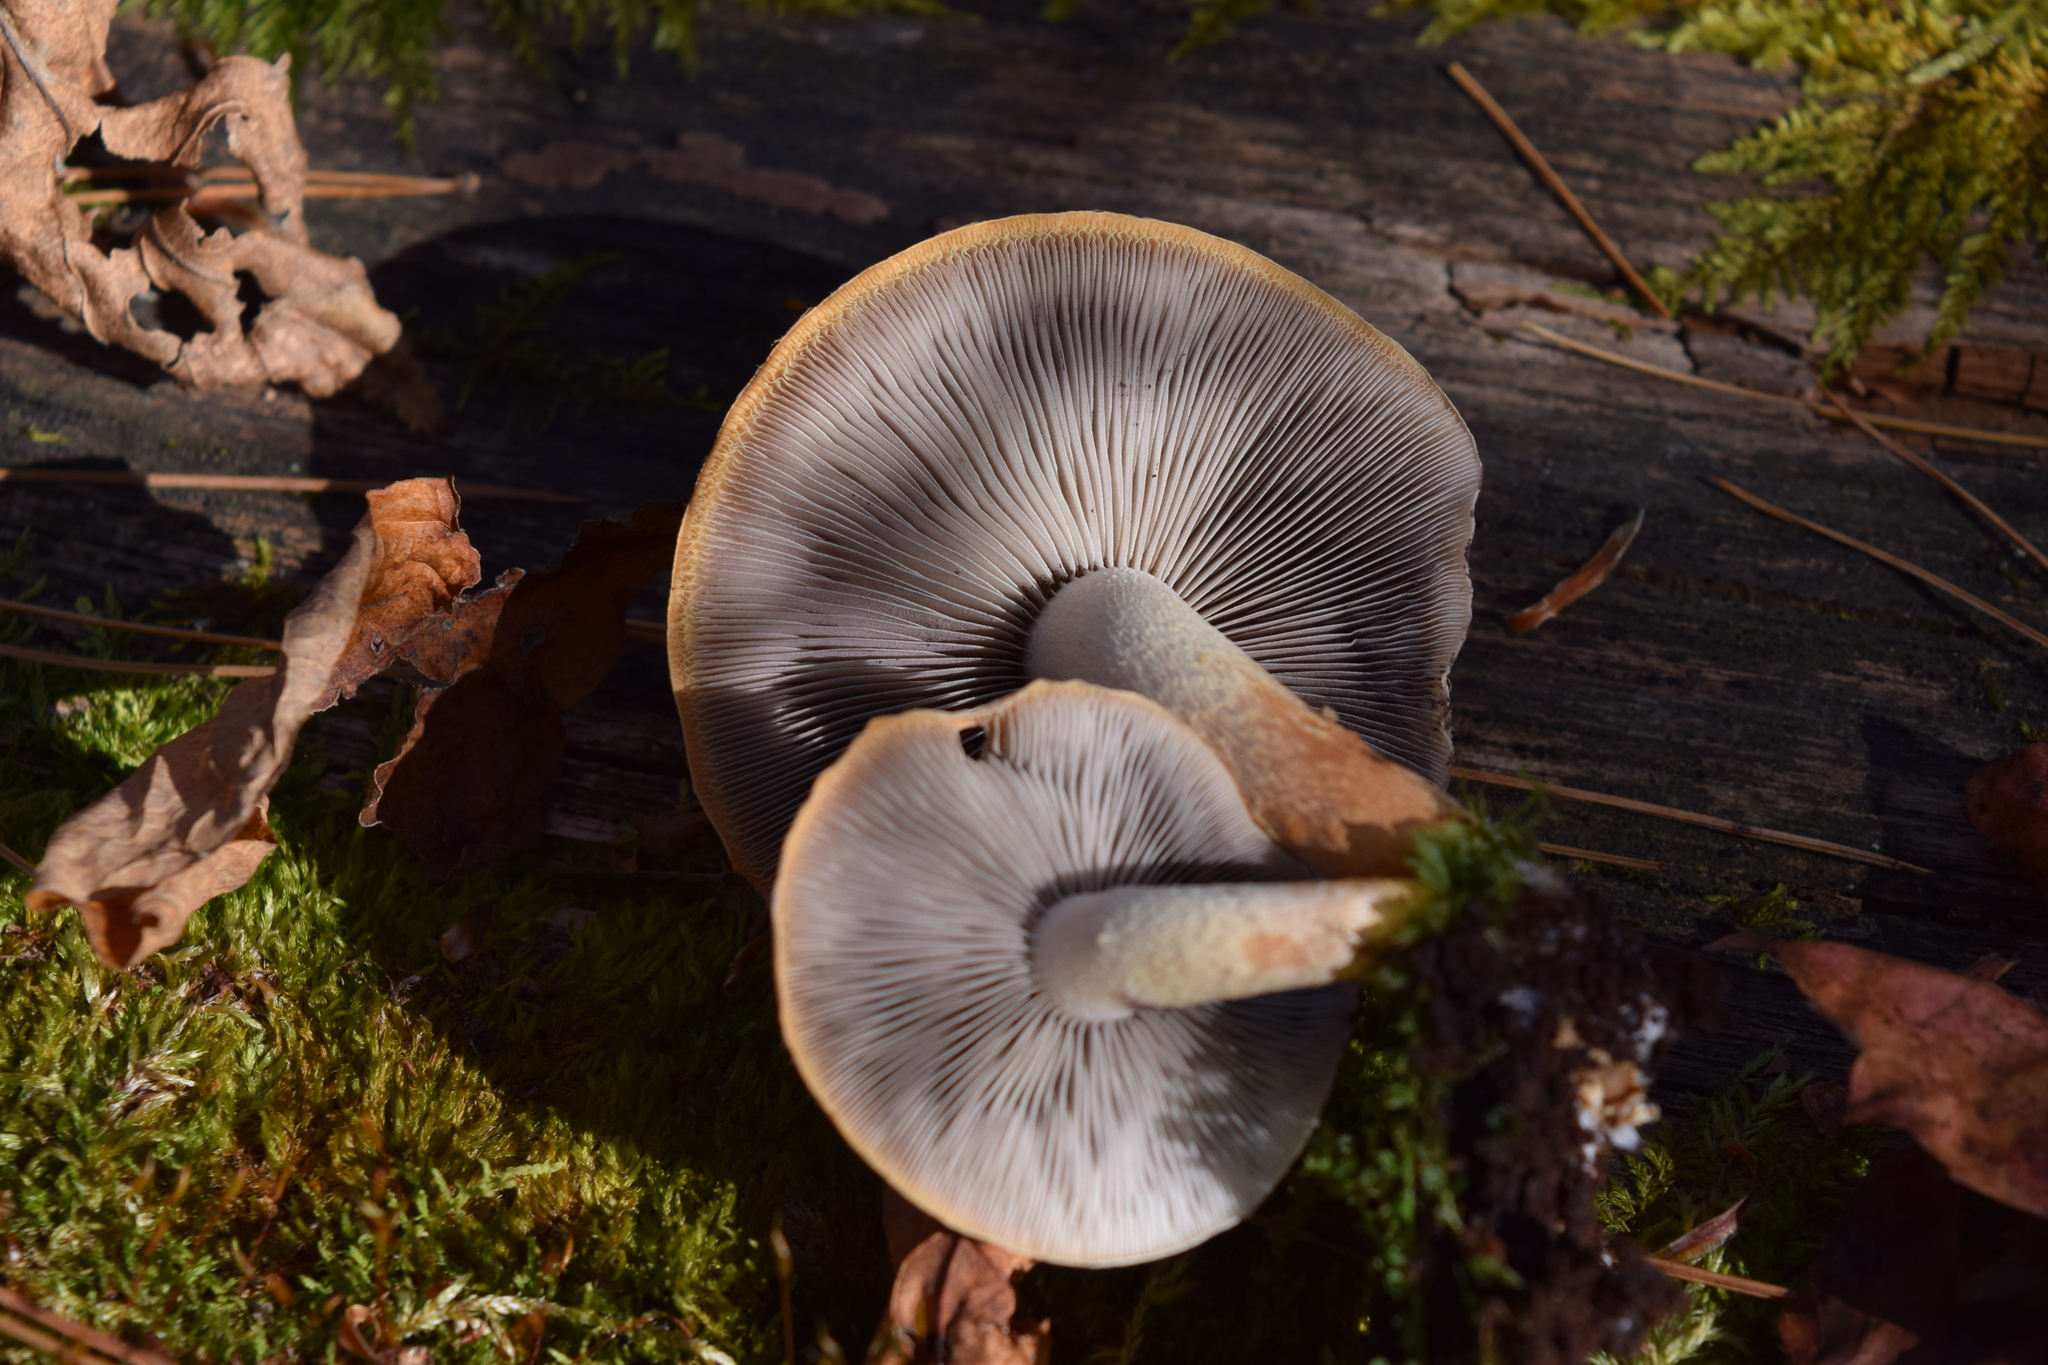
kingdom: Fungi
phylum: Basidiomycota
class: Agaricomycetes
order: Agaricales
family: Strophariaceae
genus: Hypholoma
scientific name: Hypholoma lateritium
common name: Brick caps
